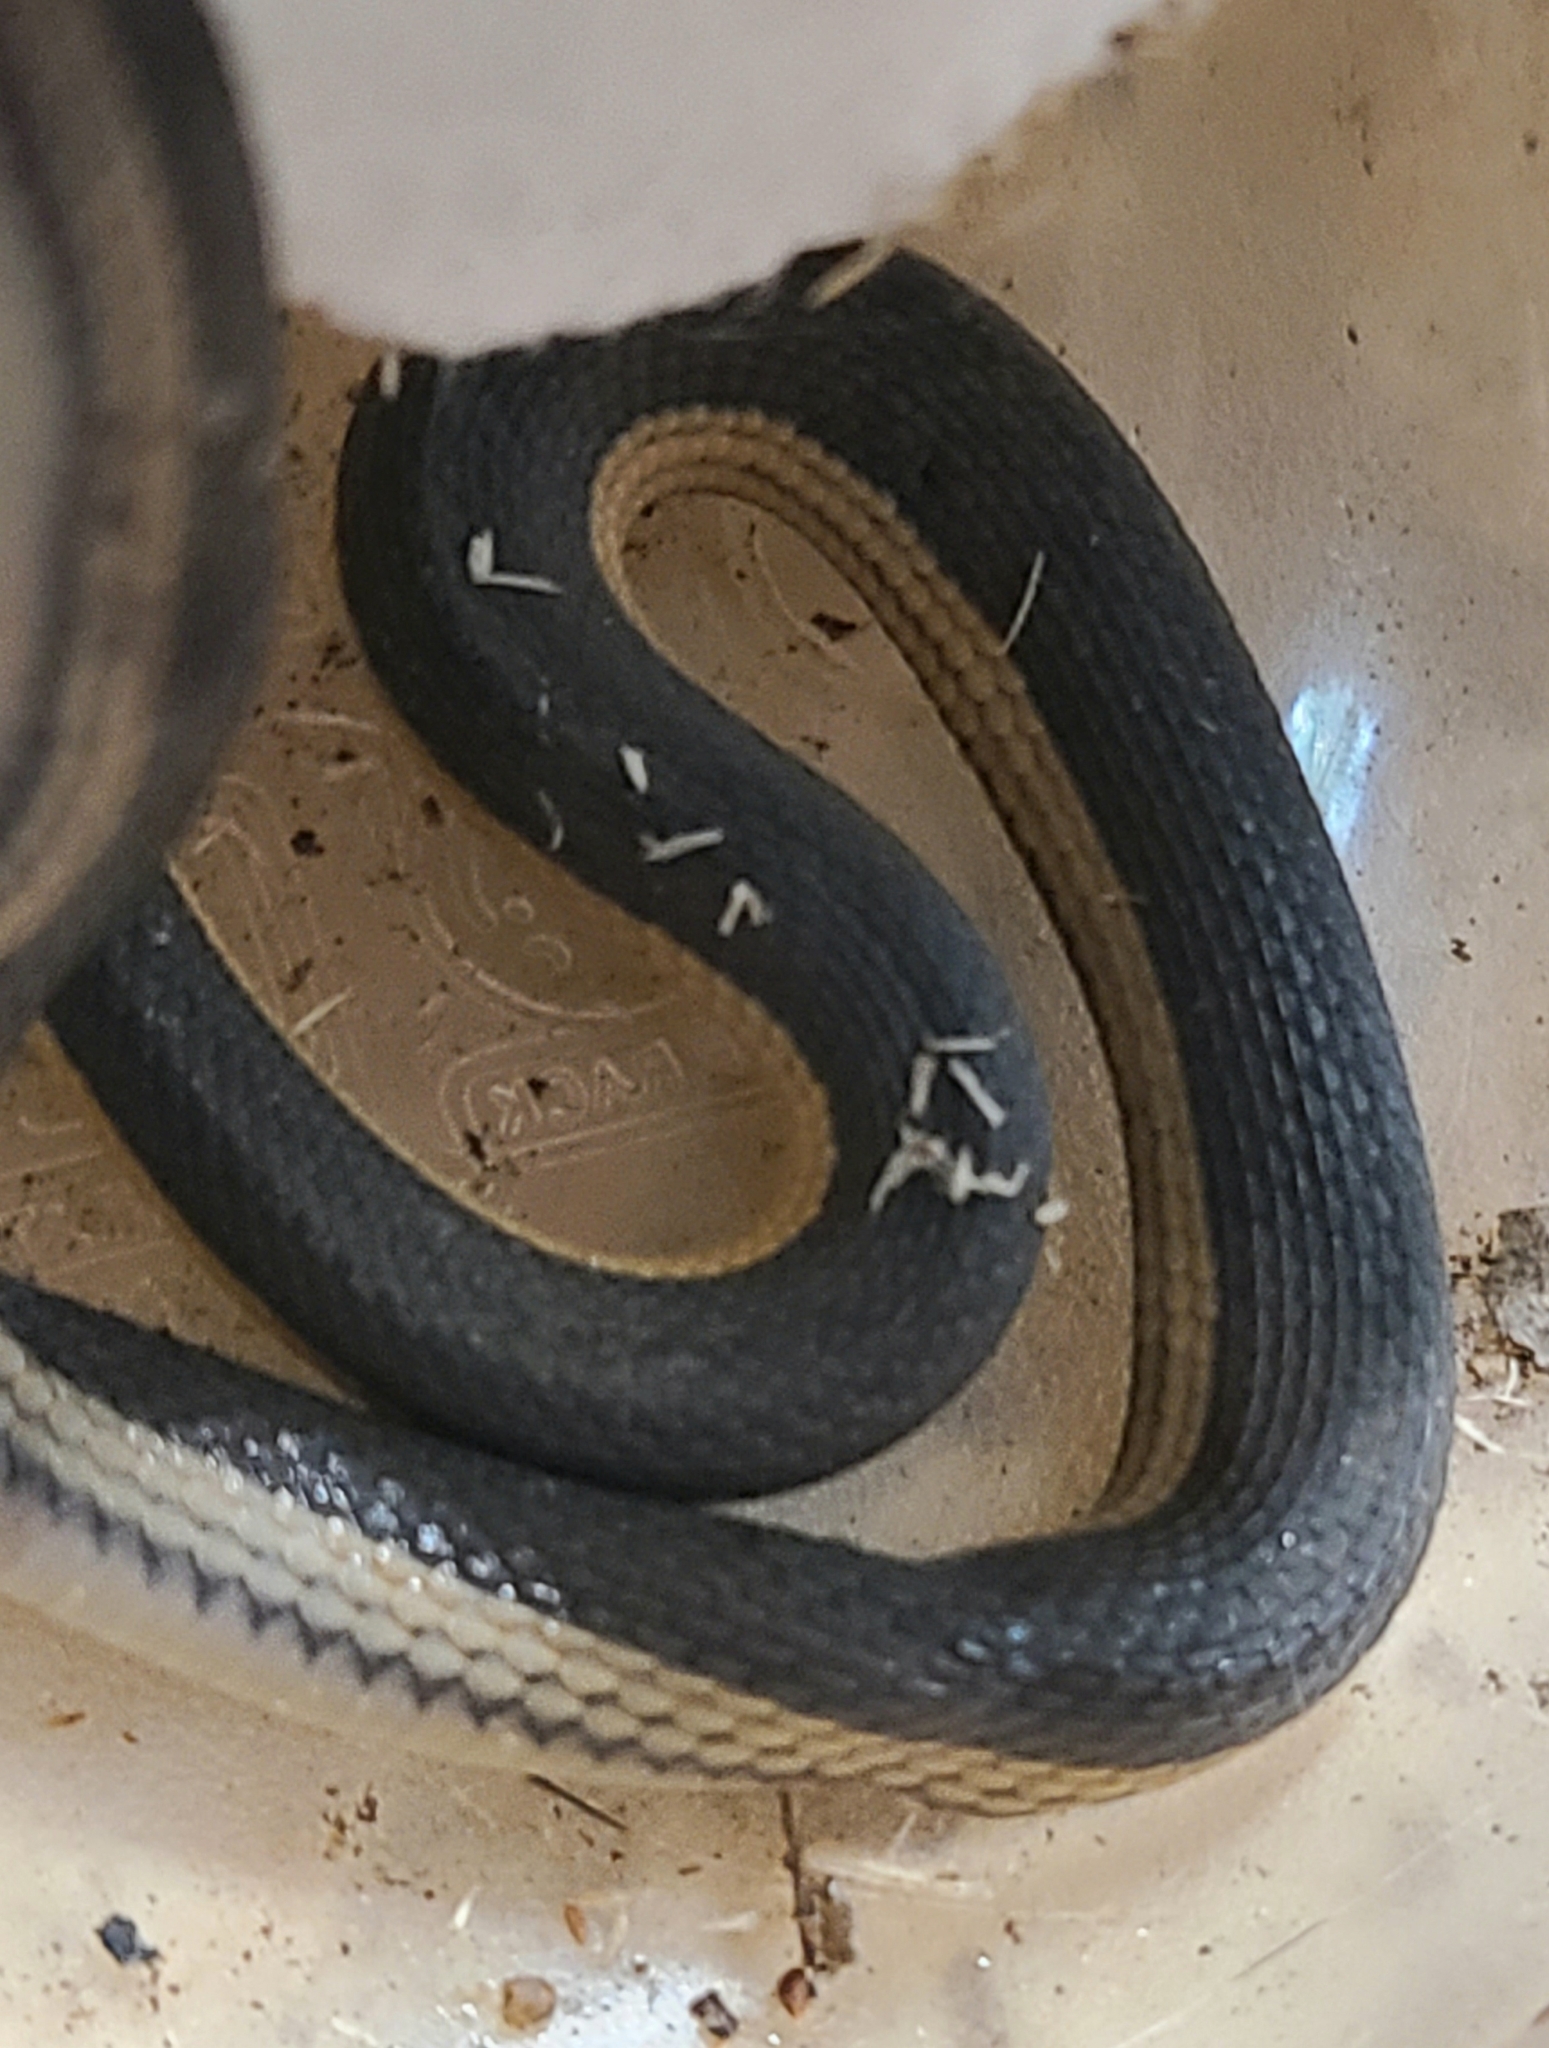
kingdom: Animalia
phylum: Chordata
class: Squamata
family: Colubridae
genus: Regina
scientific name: Regina grahamii
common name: Graham's crayfish snake
